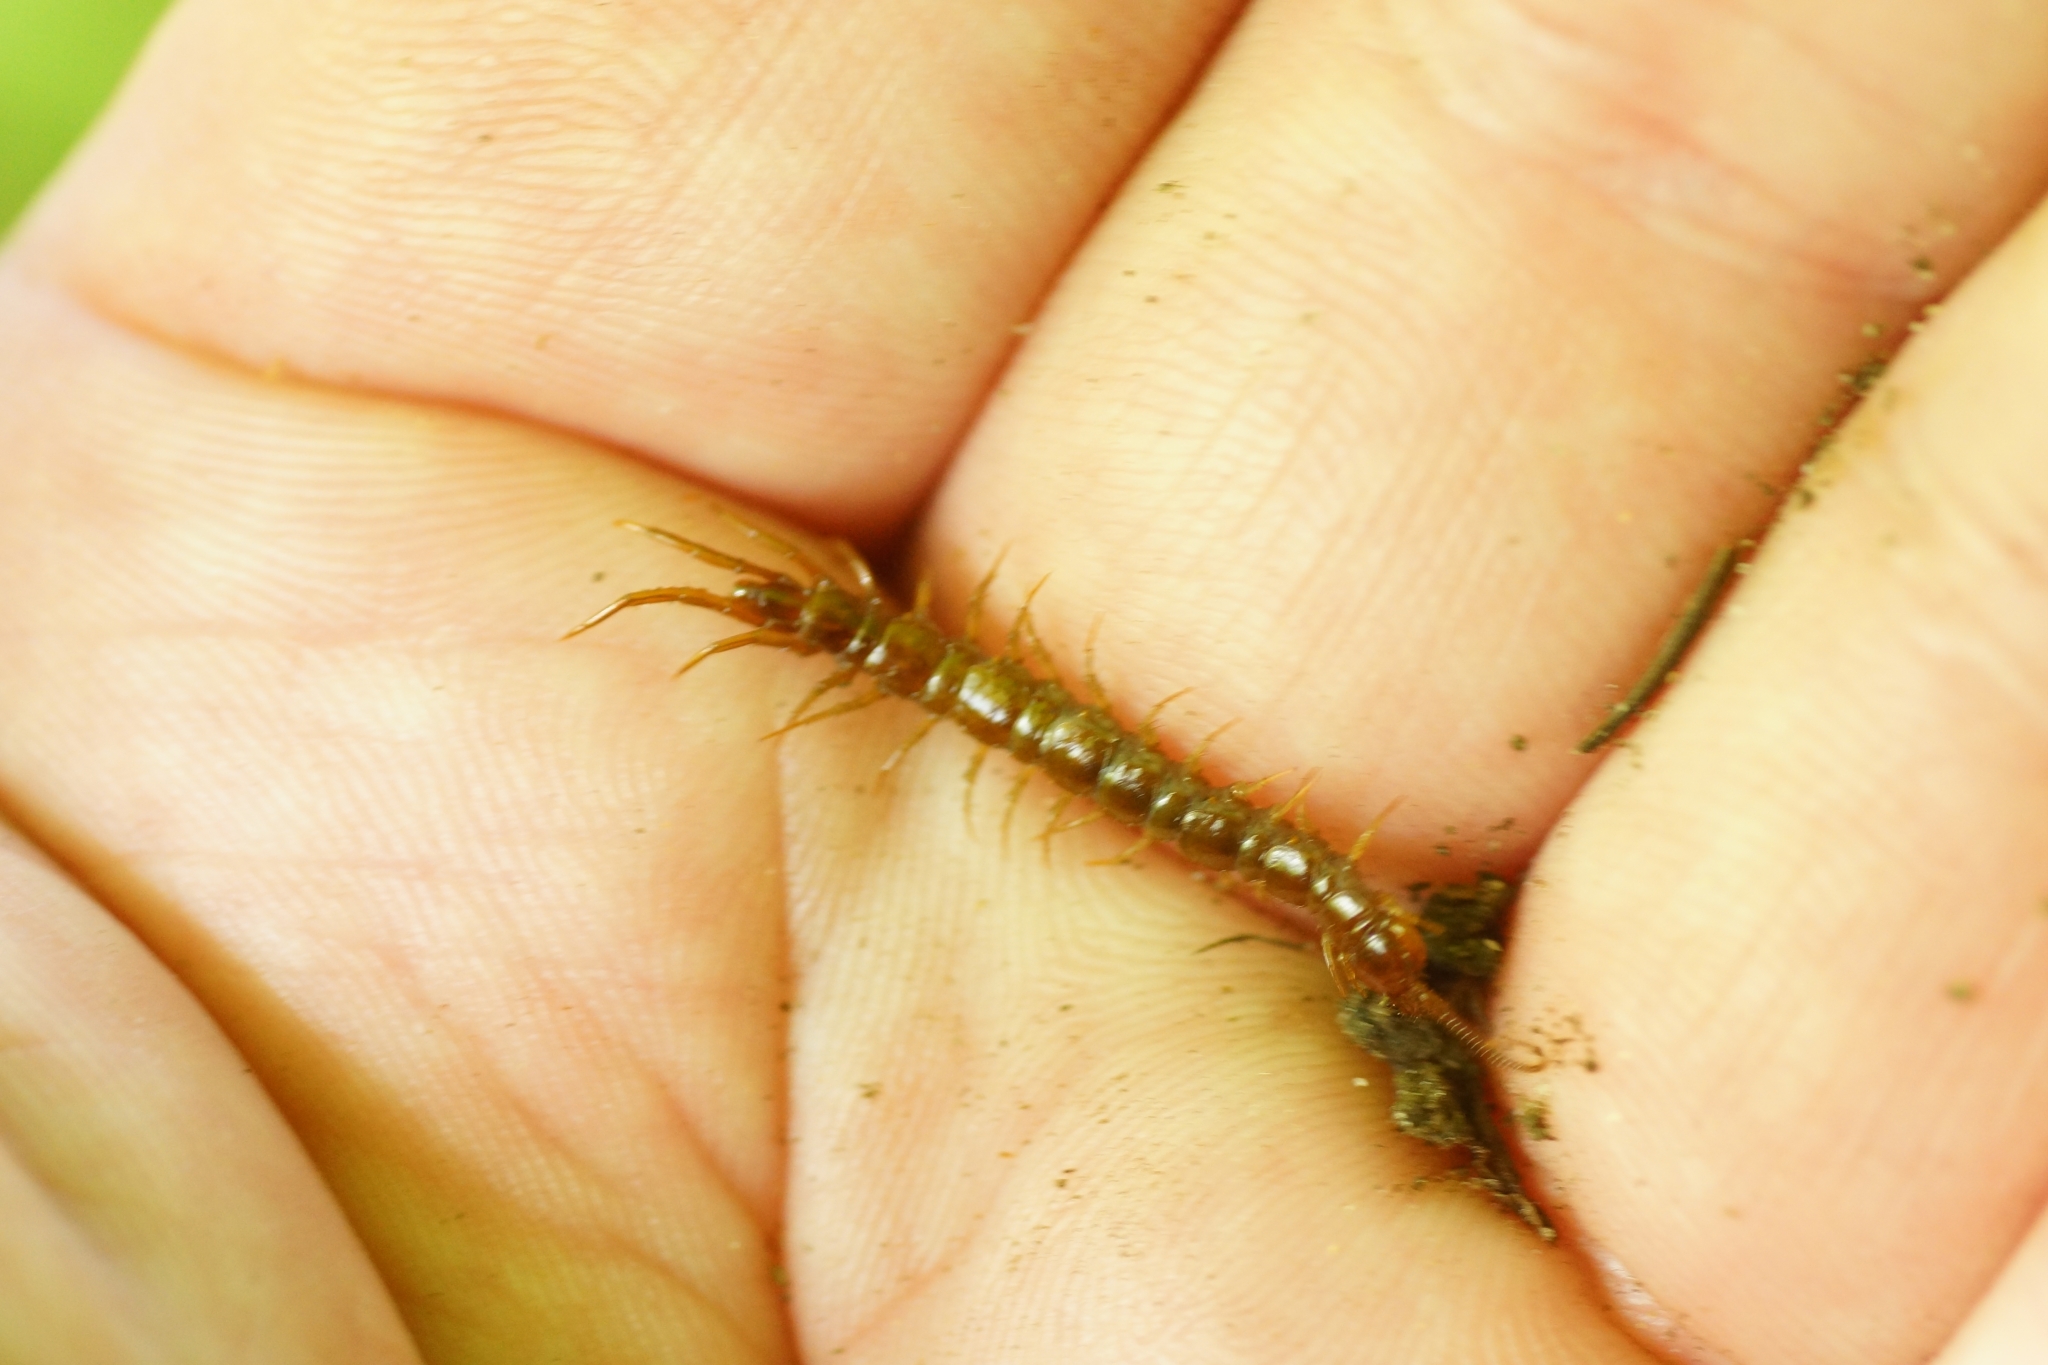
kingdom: Animalia
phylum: Arthropoda
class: Chilopoda
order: Lithobiomorpha
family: Lithobiidae
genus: Lithobius
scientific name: Lithobius forficatus
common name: Centipede
